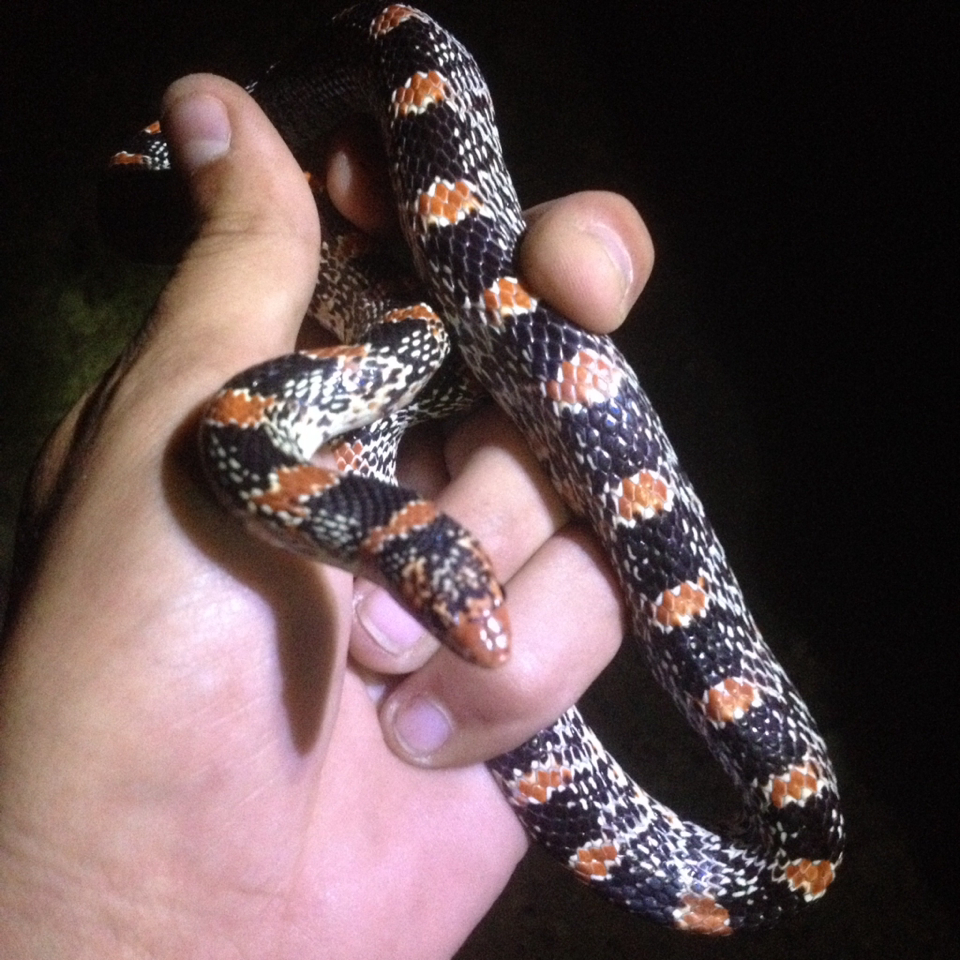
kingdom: Animalia
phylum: Chordata
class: Squamata
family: Colubridae
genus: Rhinocheilus
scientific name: Rhinocheilus lecontei
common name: Longnose snake
